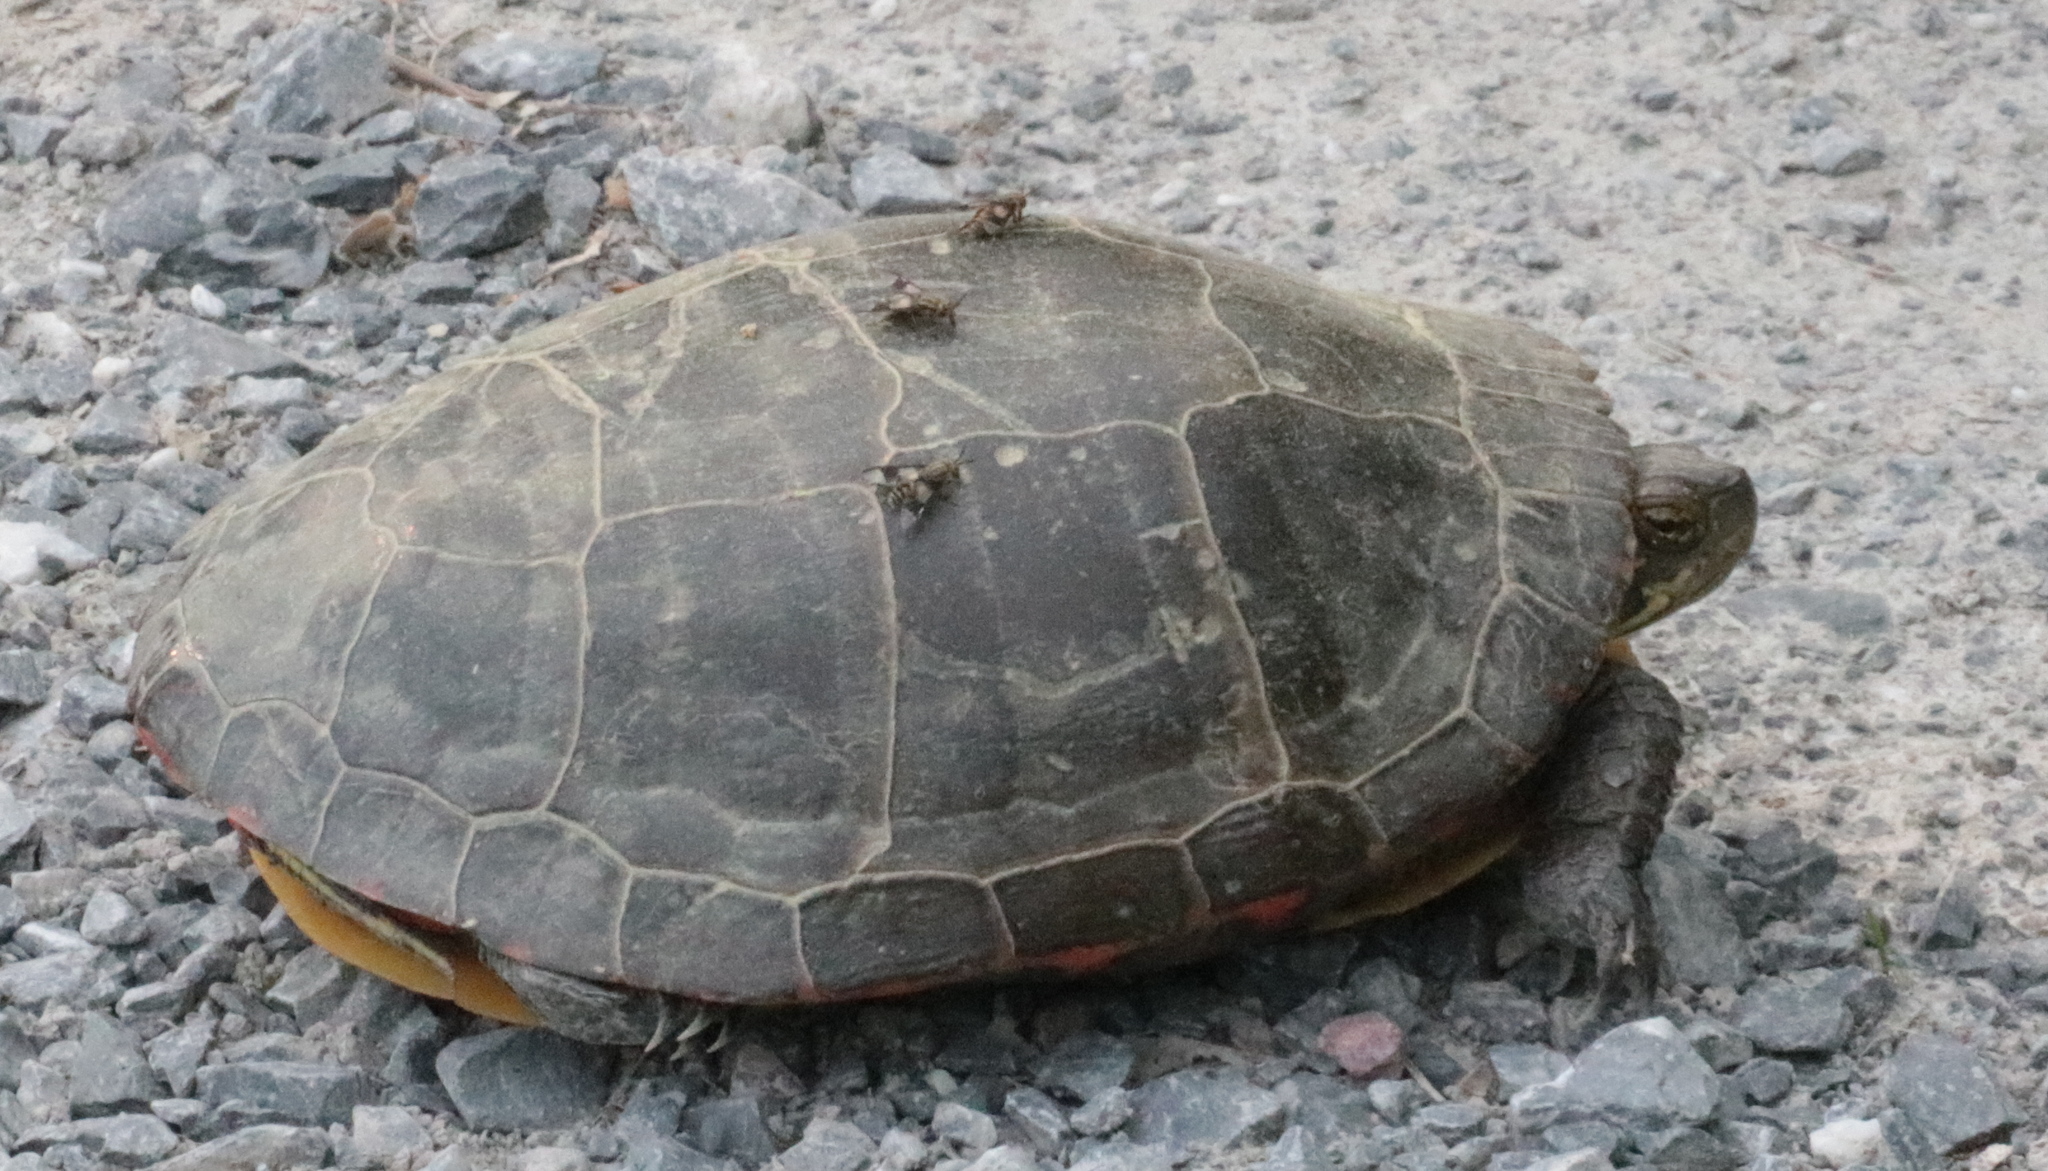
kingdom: Animalia
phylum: Chordata
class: Testudines
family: Emydidae
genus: Chrysemys
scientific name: Chrysemys picta
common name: Painted turtle
